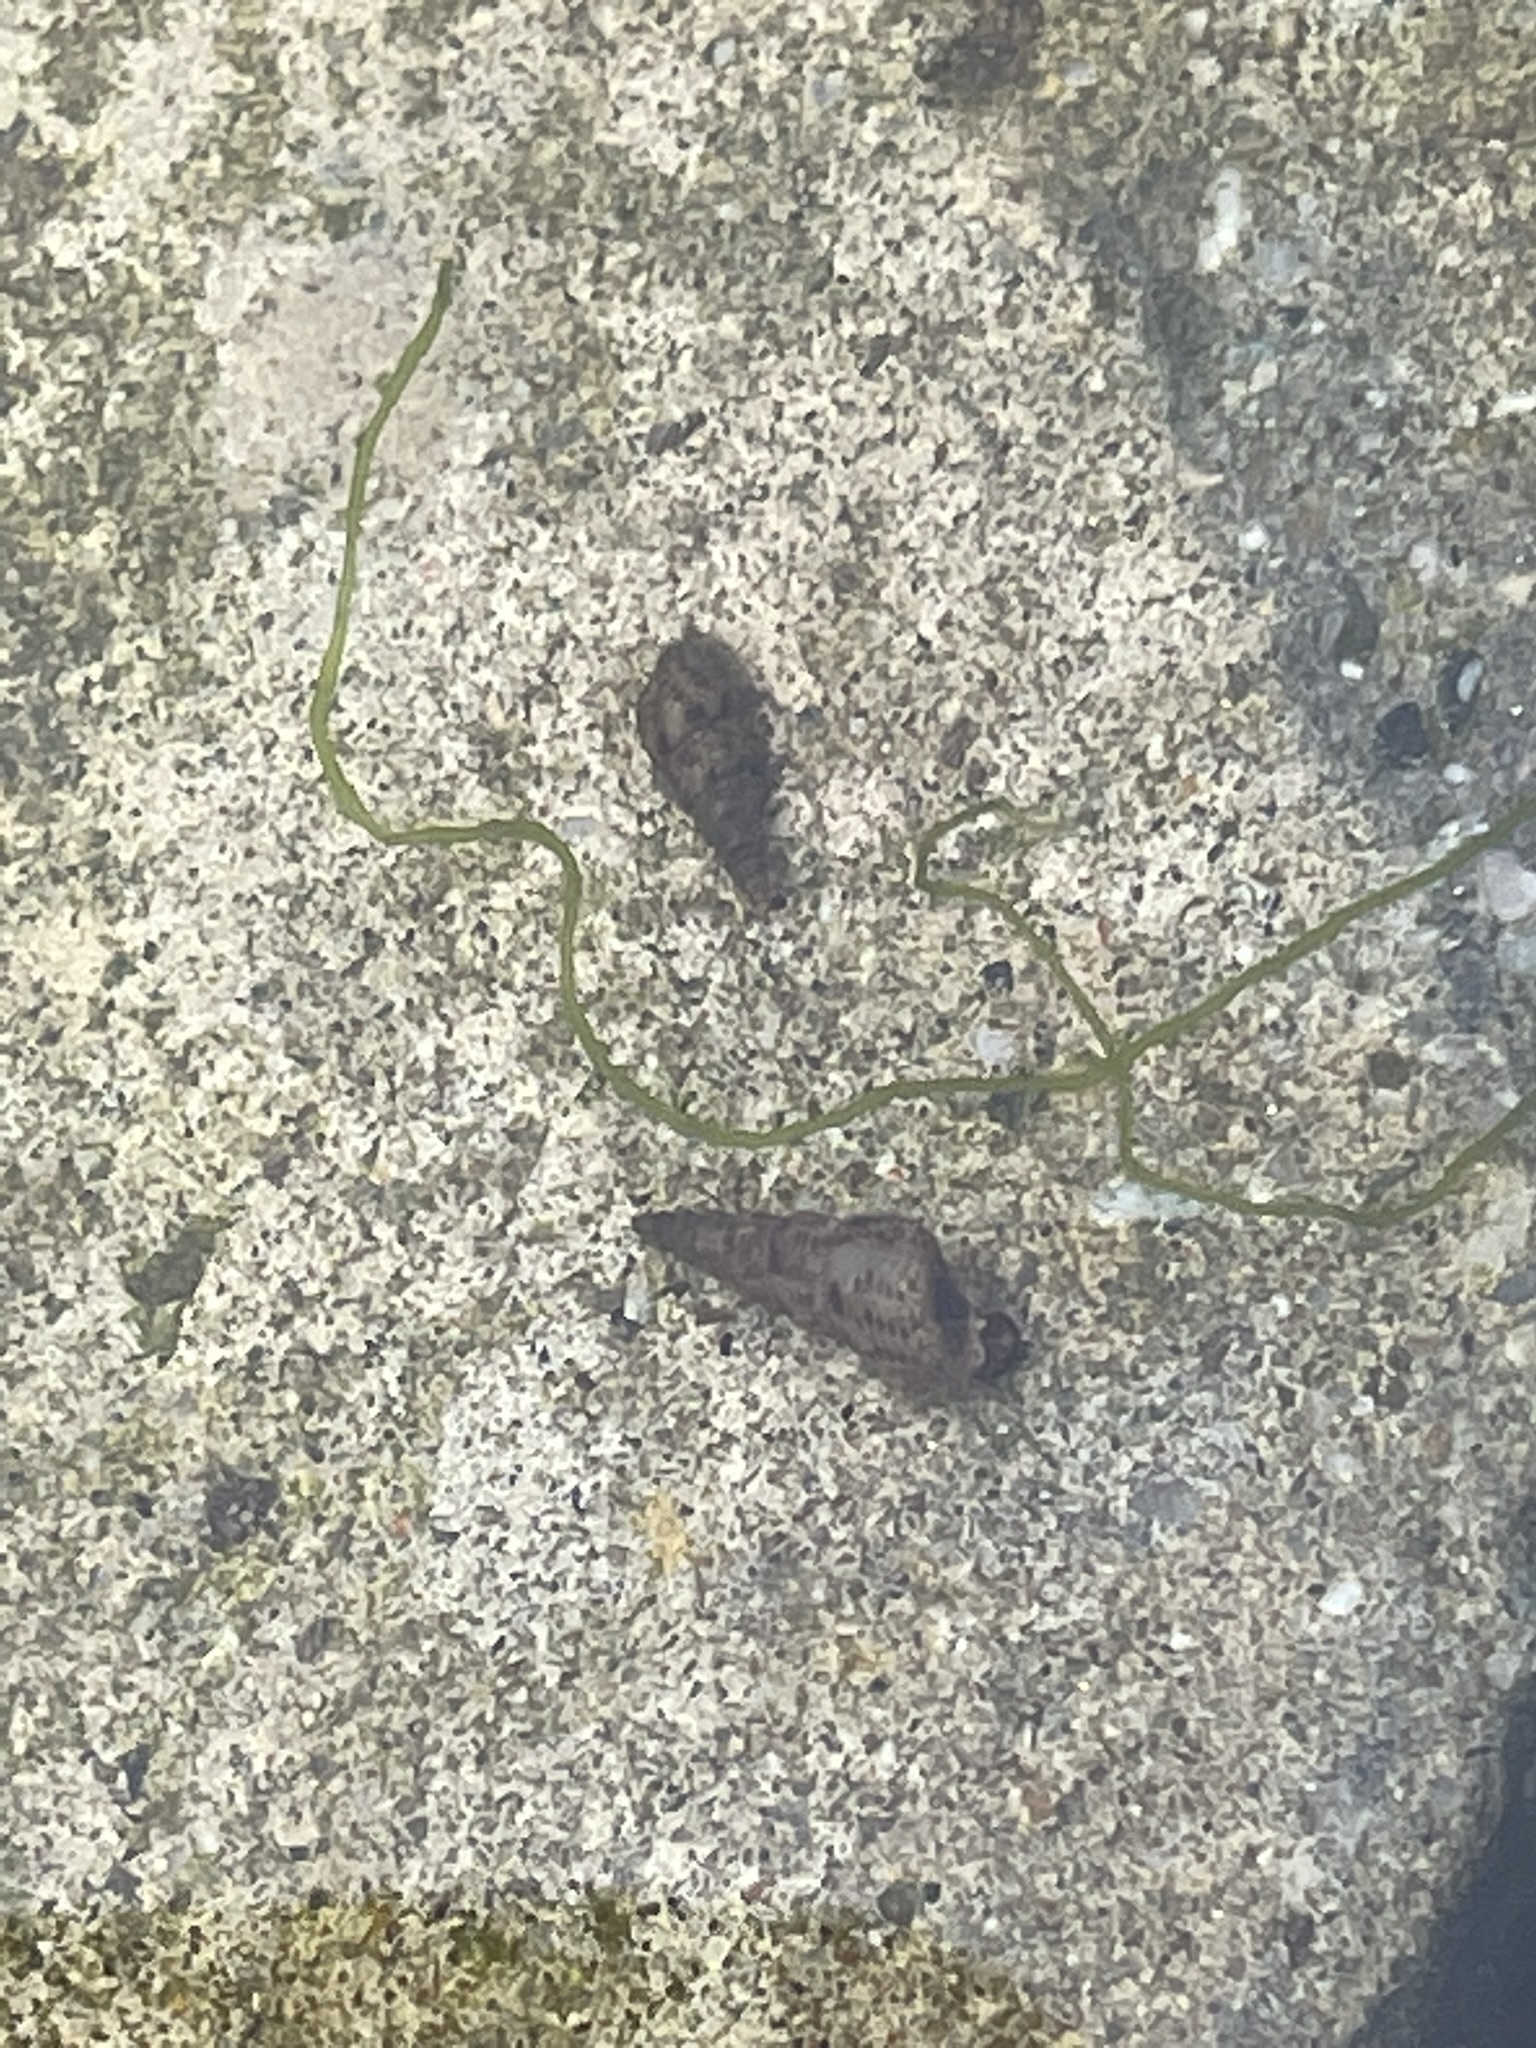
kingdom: Animalia
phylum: Mollusca
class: Gastropoda
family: Thiaridae
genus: Melanoides
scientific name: Melanoides tuberculata
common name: Red-rim melania
